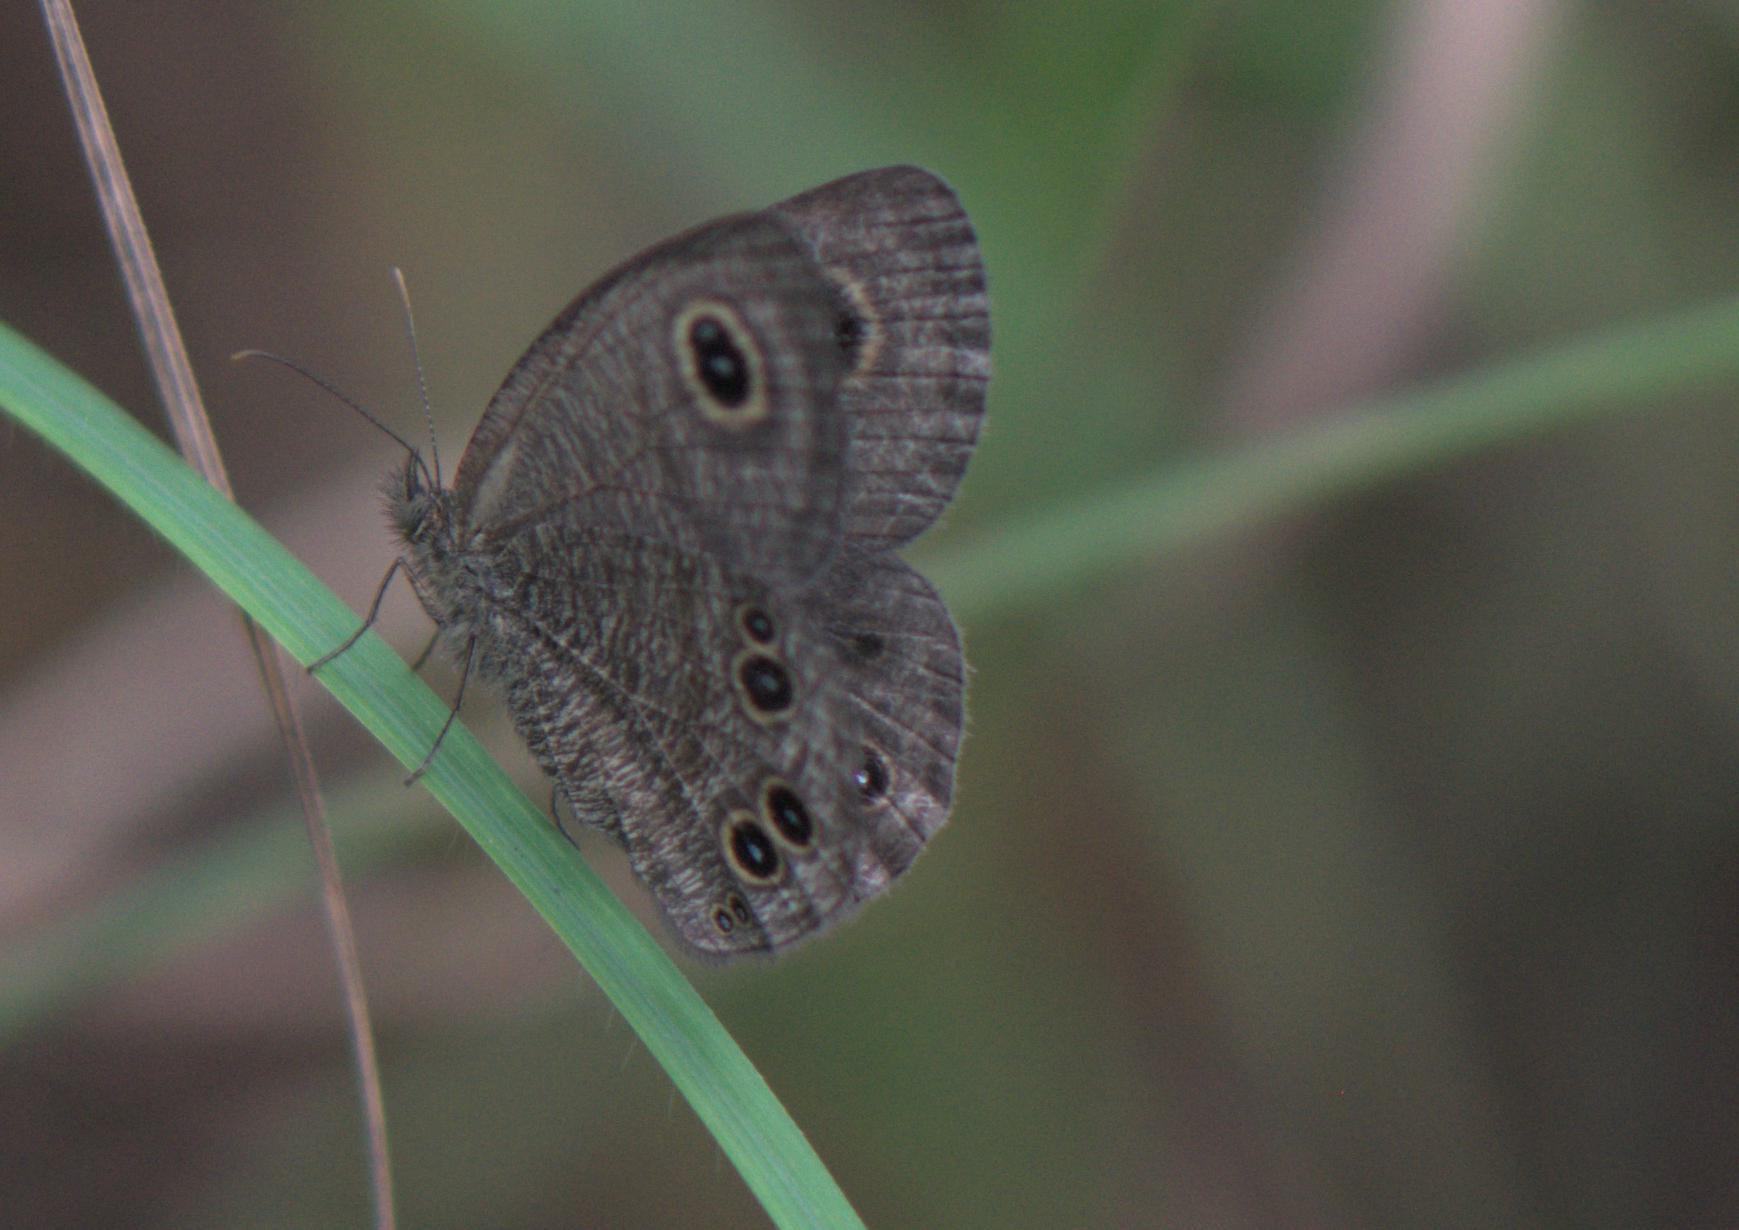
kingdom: Animalia
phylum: Arthropoda
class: Insecta
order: Lepidoptera
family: Nymphalidae
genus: Ypthima
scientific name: Ypthima baldus
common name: Common five-ring
